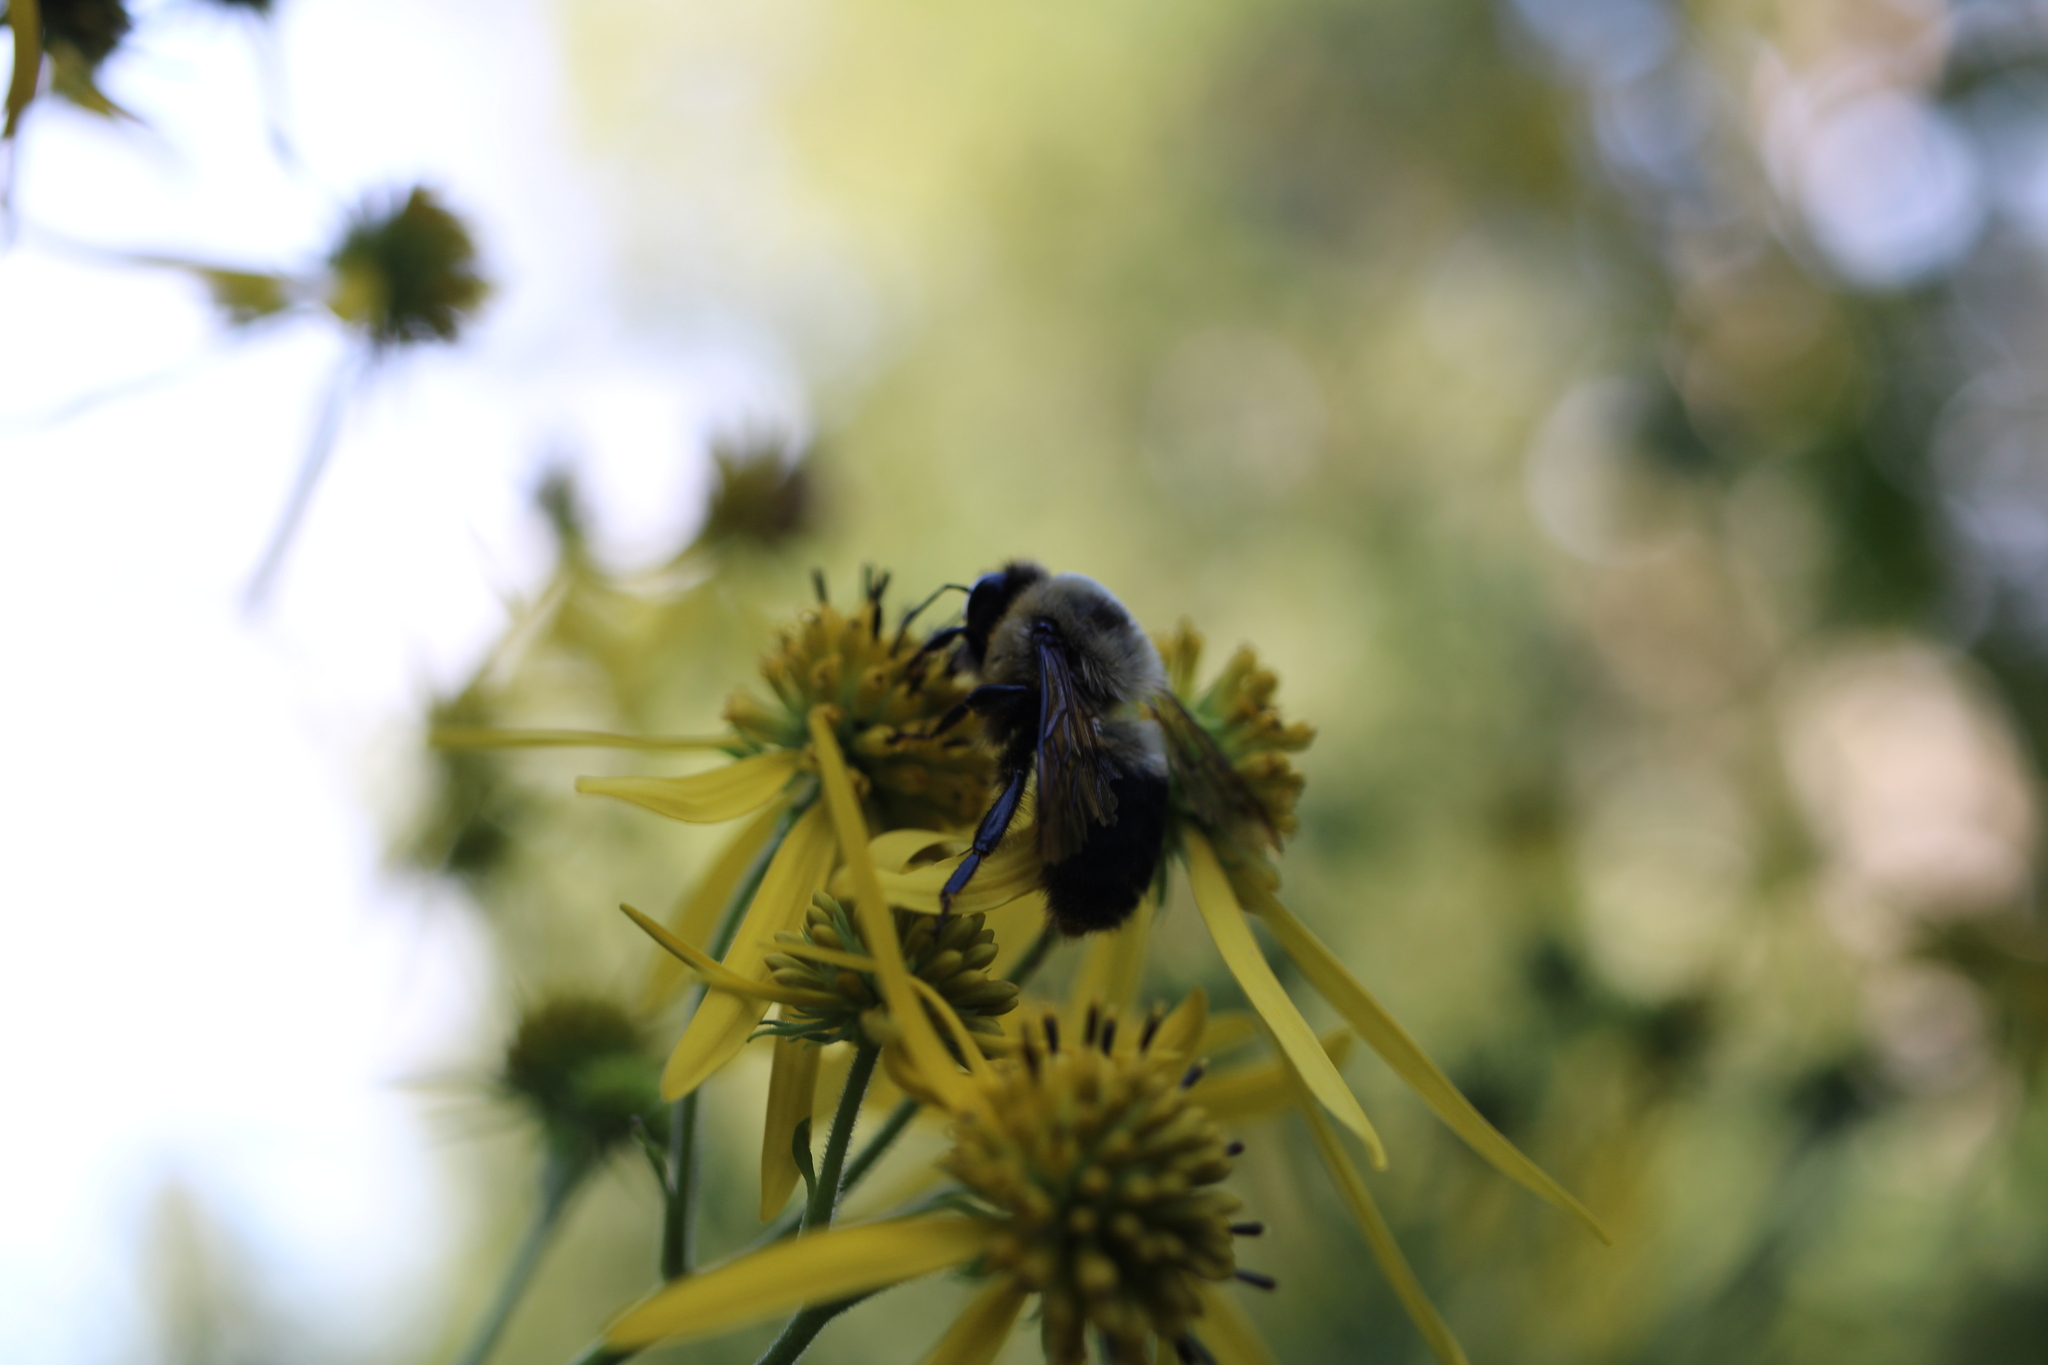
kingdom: Animalia
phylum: Arthropoda
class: Insecta
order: Hymenoptera
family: Apidae
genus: Bombus
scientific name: Bombus griseocollis
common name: Brown-belted bumble bee
